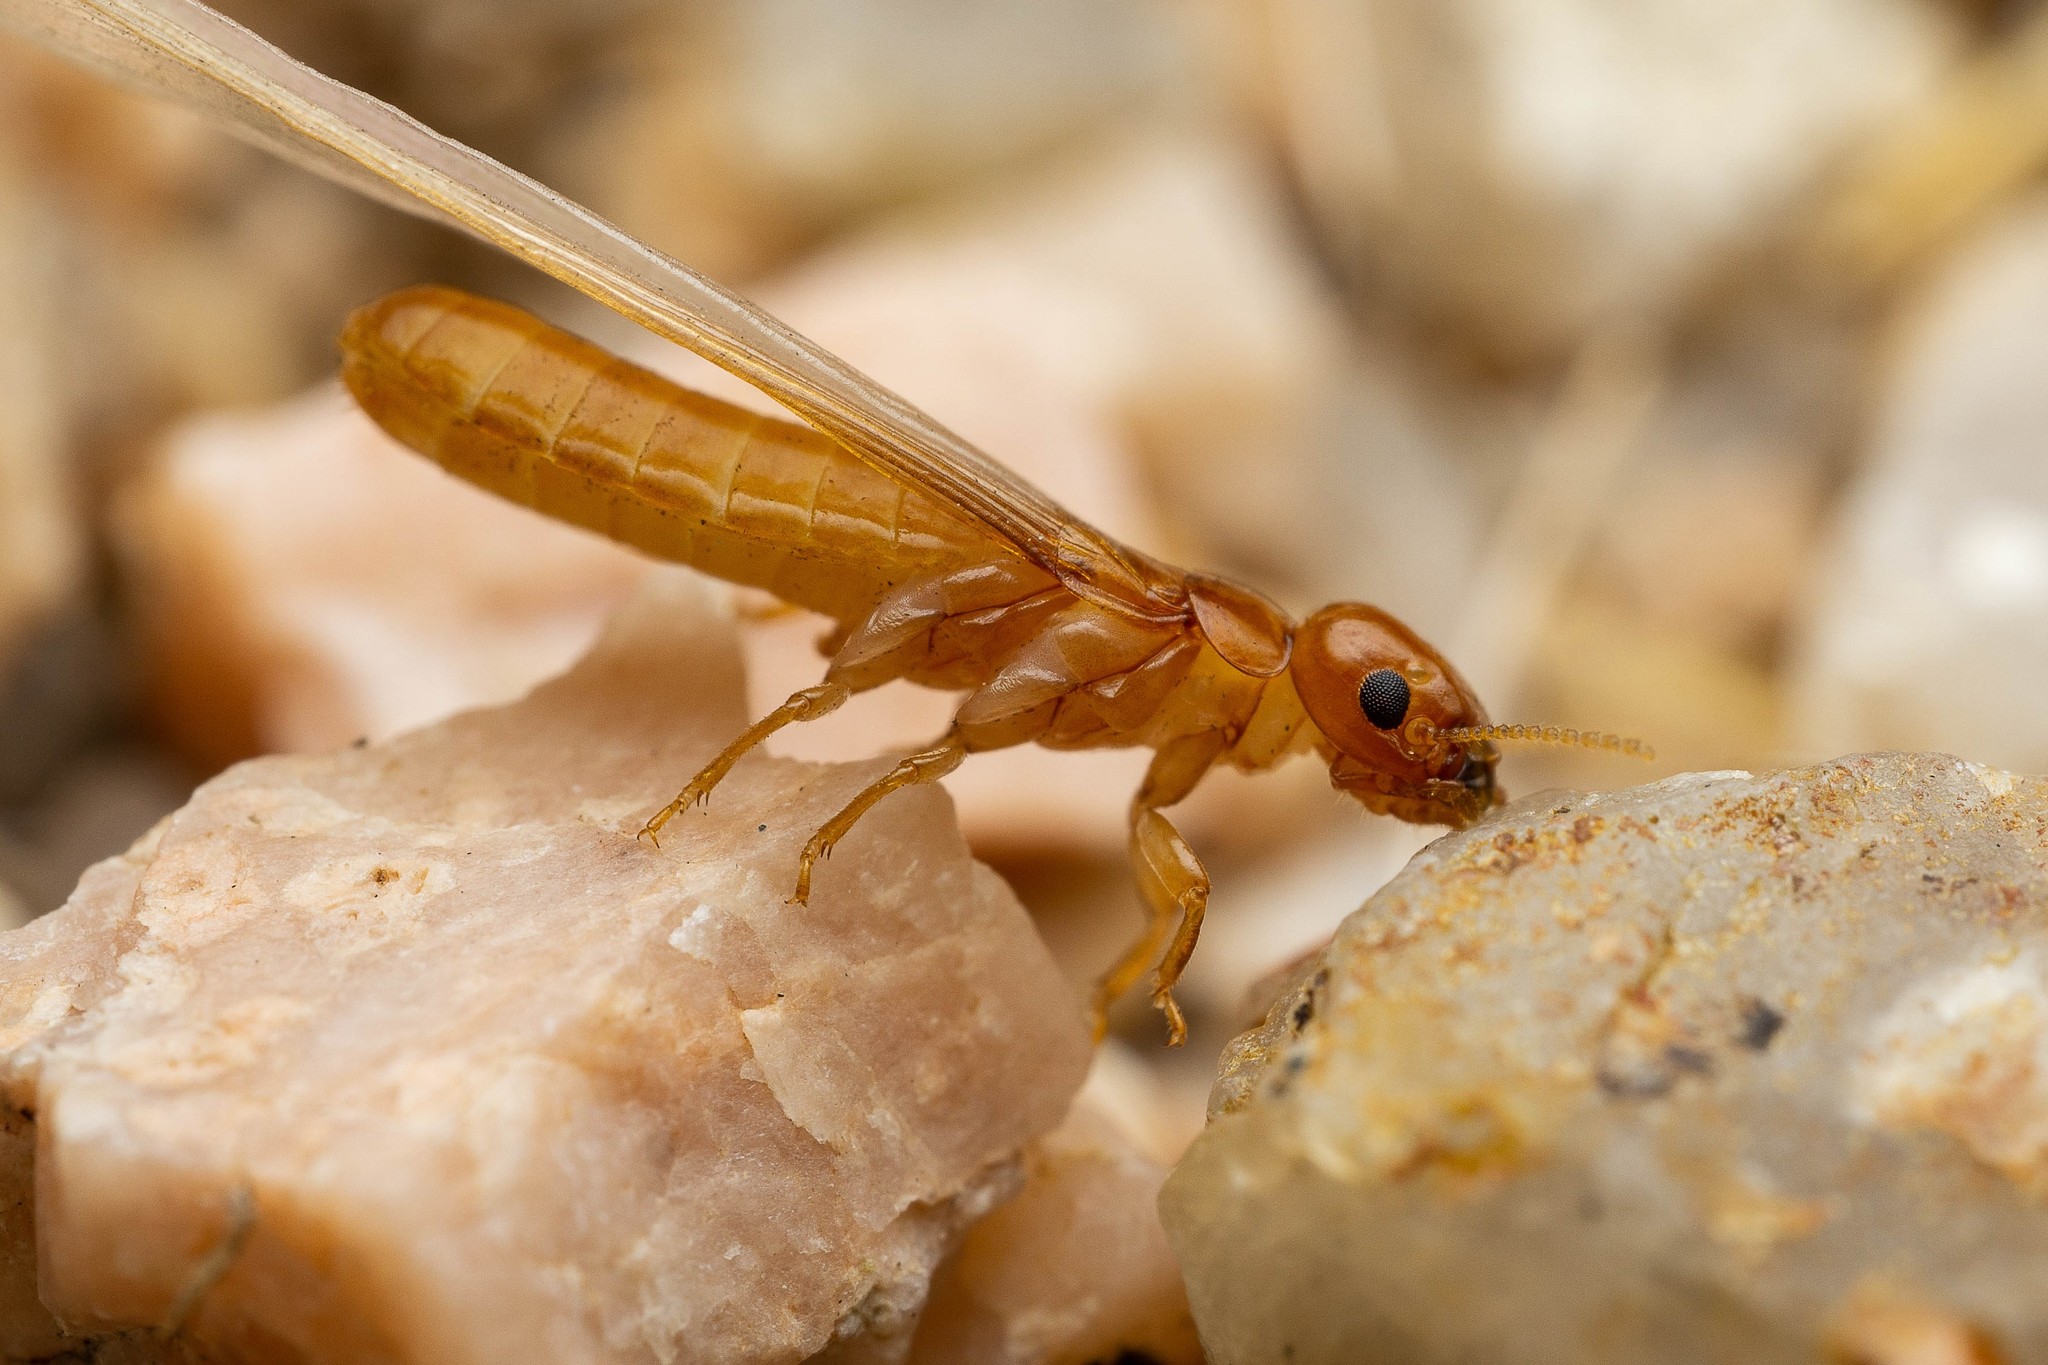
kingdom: Animalia
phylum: Arthropoda
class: Insecta
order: Blattodea
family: Kalotermitidae
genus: Marginitermes
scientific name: Marginitermes hubbardi
